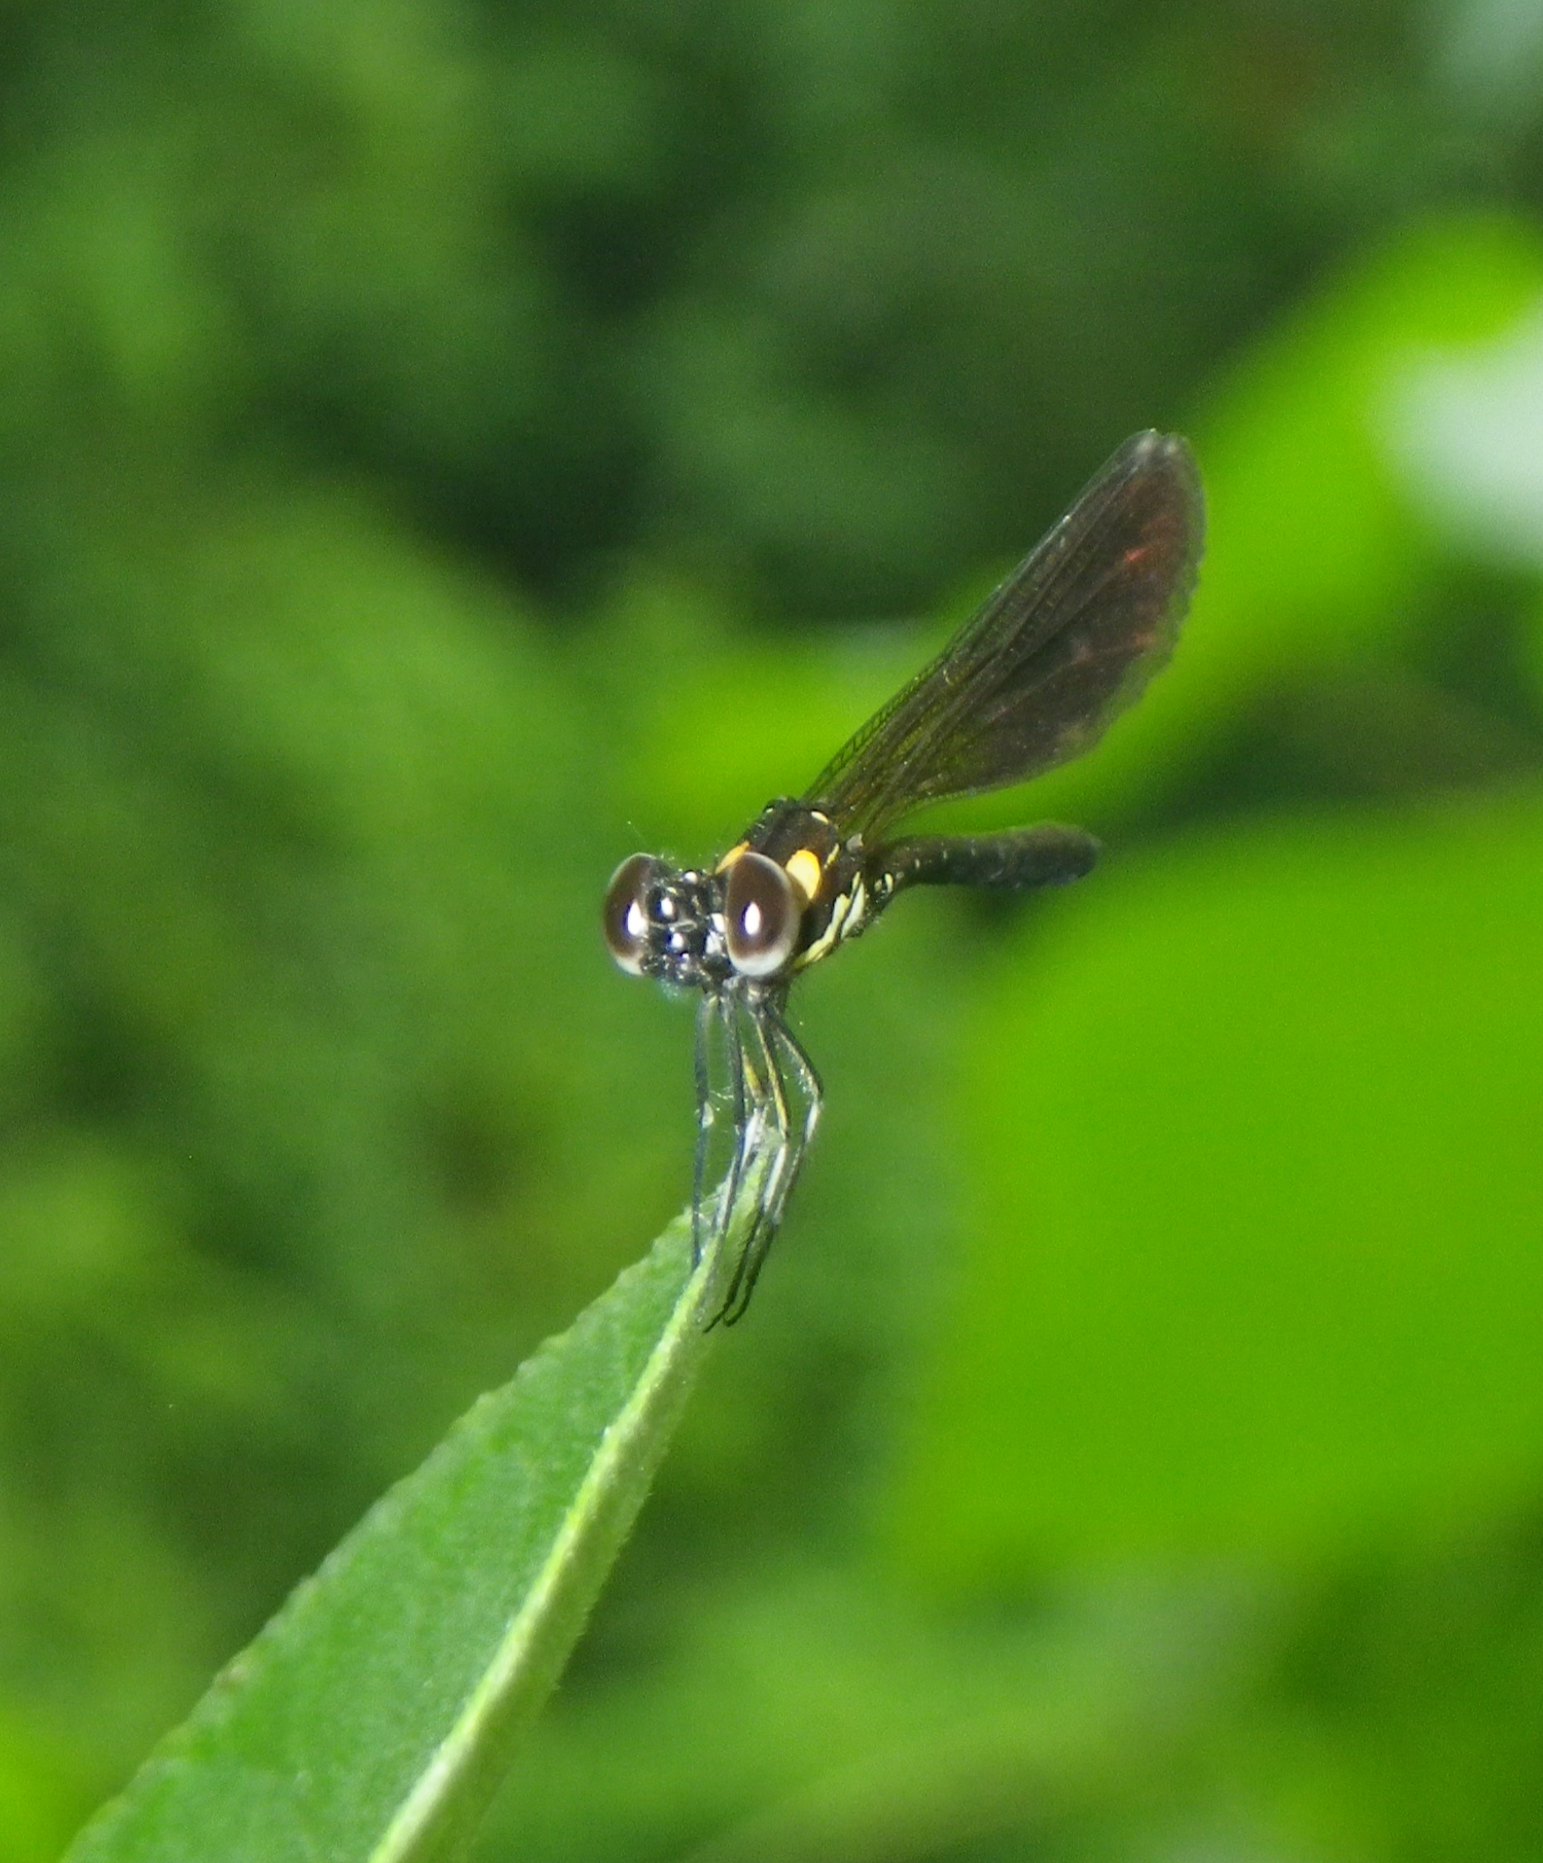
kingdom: Animalia
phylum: Arthropoda
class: Insecta
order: Odonata
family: Chlorocyphidae
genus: Heliocypha
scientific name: Heliocypha fenestrata
